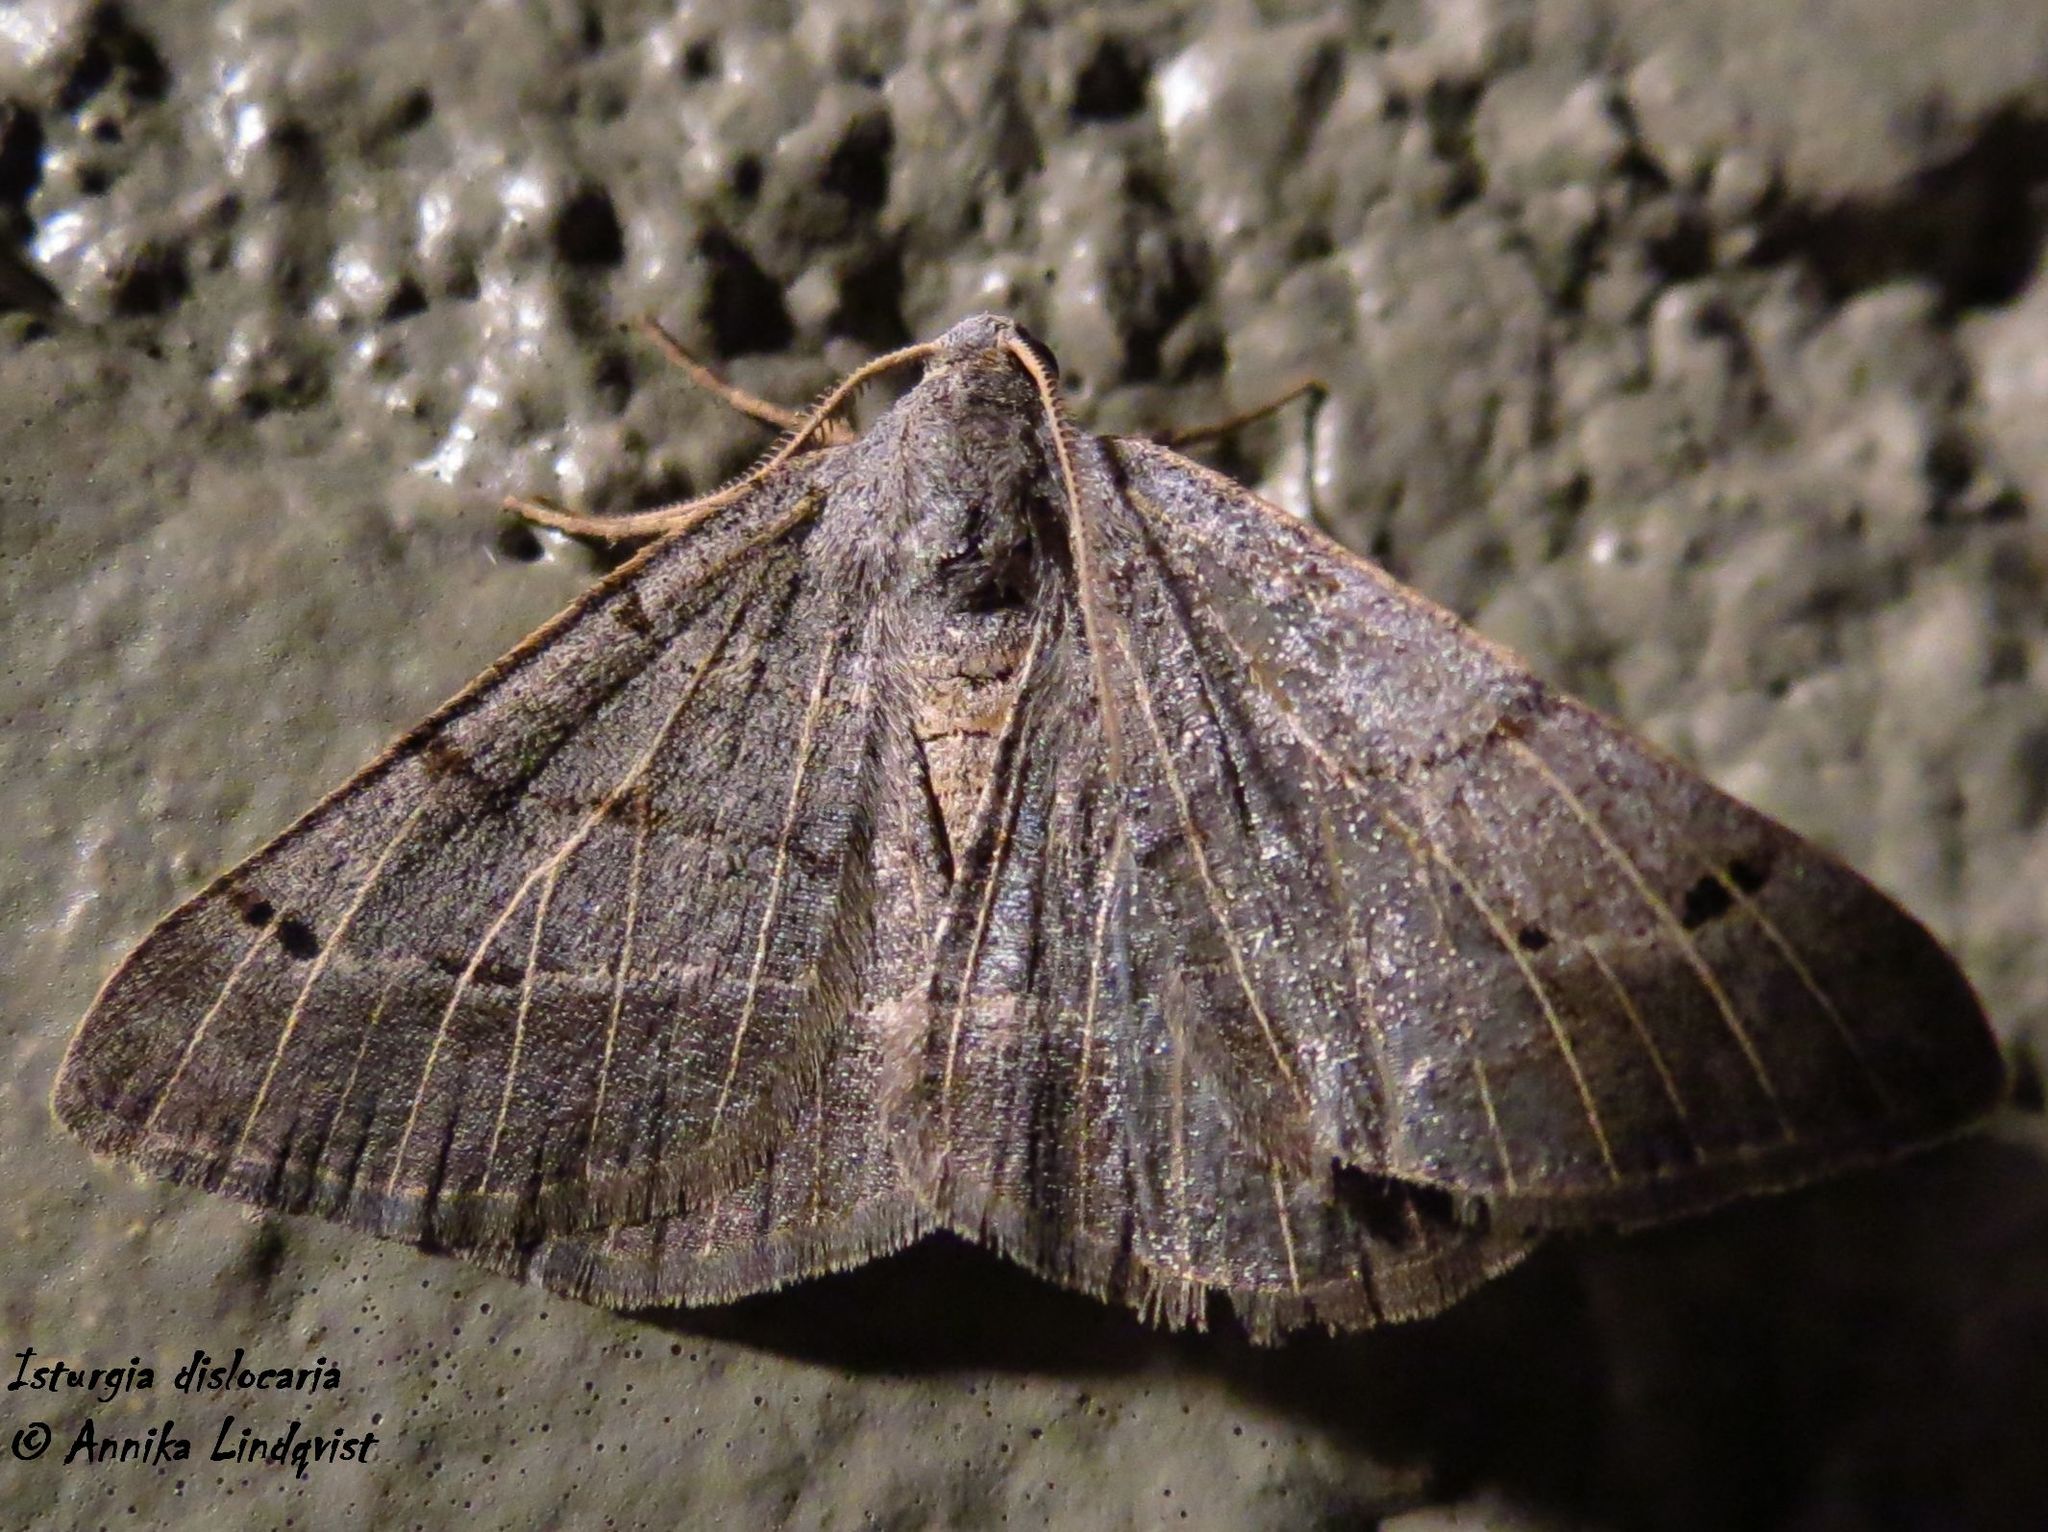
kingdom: Animalia
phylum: Arthropoda
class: Insecta
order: Lepidoptera
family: Geometridae
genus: Isturgia
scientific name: Isturgia dislocaria
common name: Pale-viened enconista
